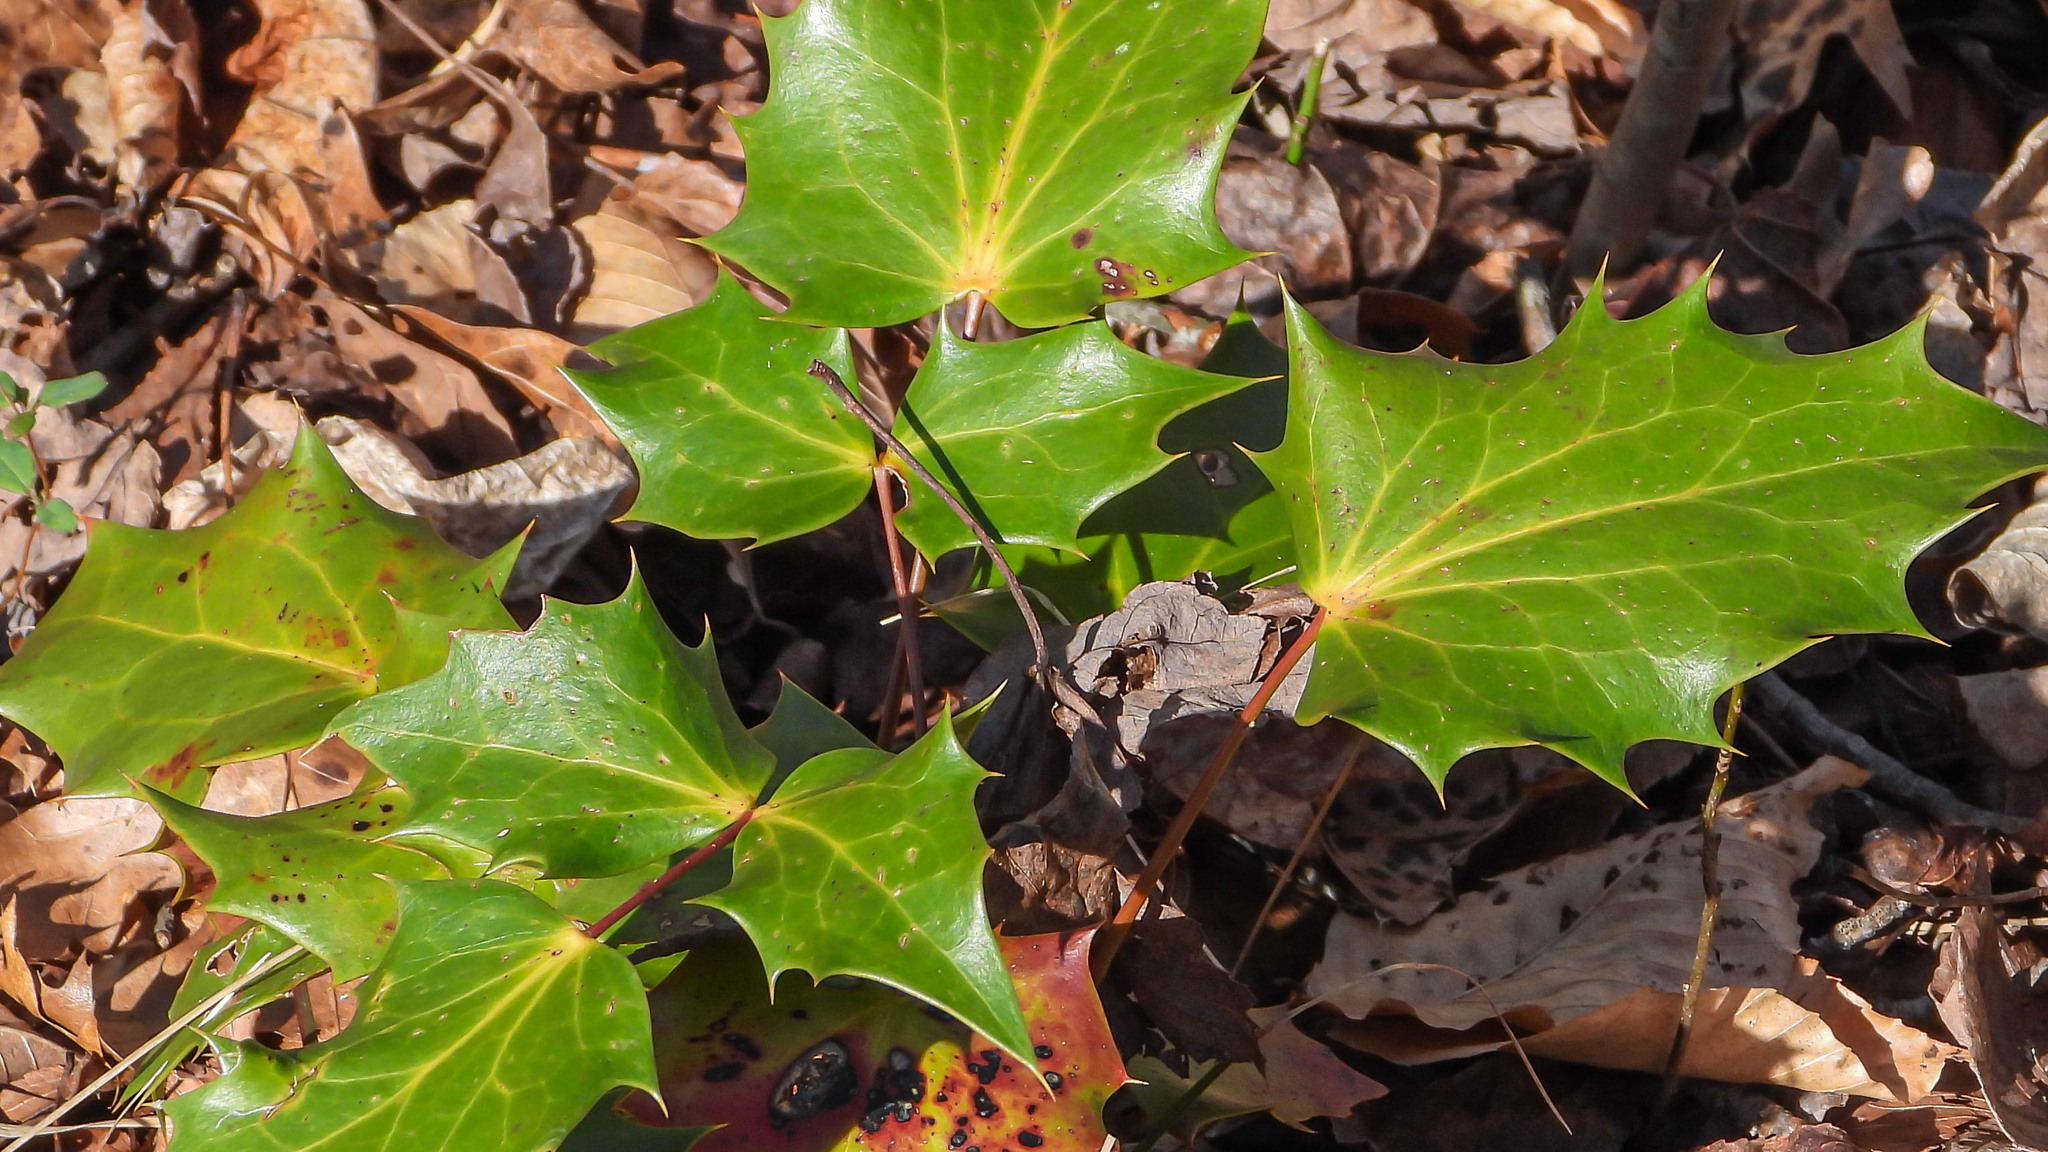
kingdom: Plantae
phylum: Tracheophyta
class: Magnoliopsida
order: Ranunculales
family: Berberidaceae
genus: Mahonia
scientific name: Mahonia bealei
